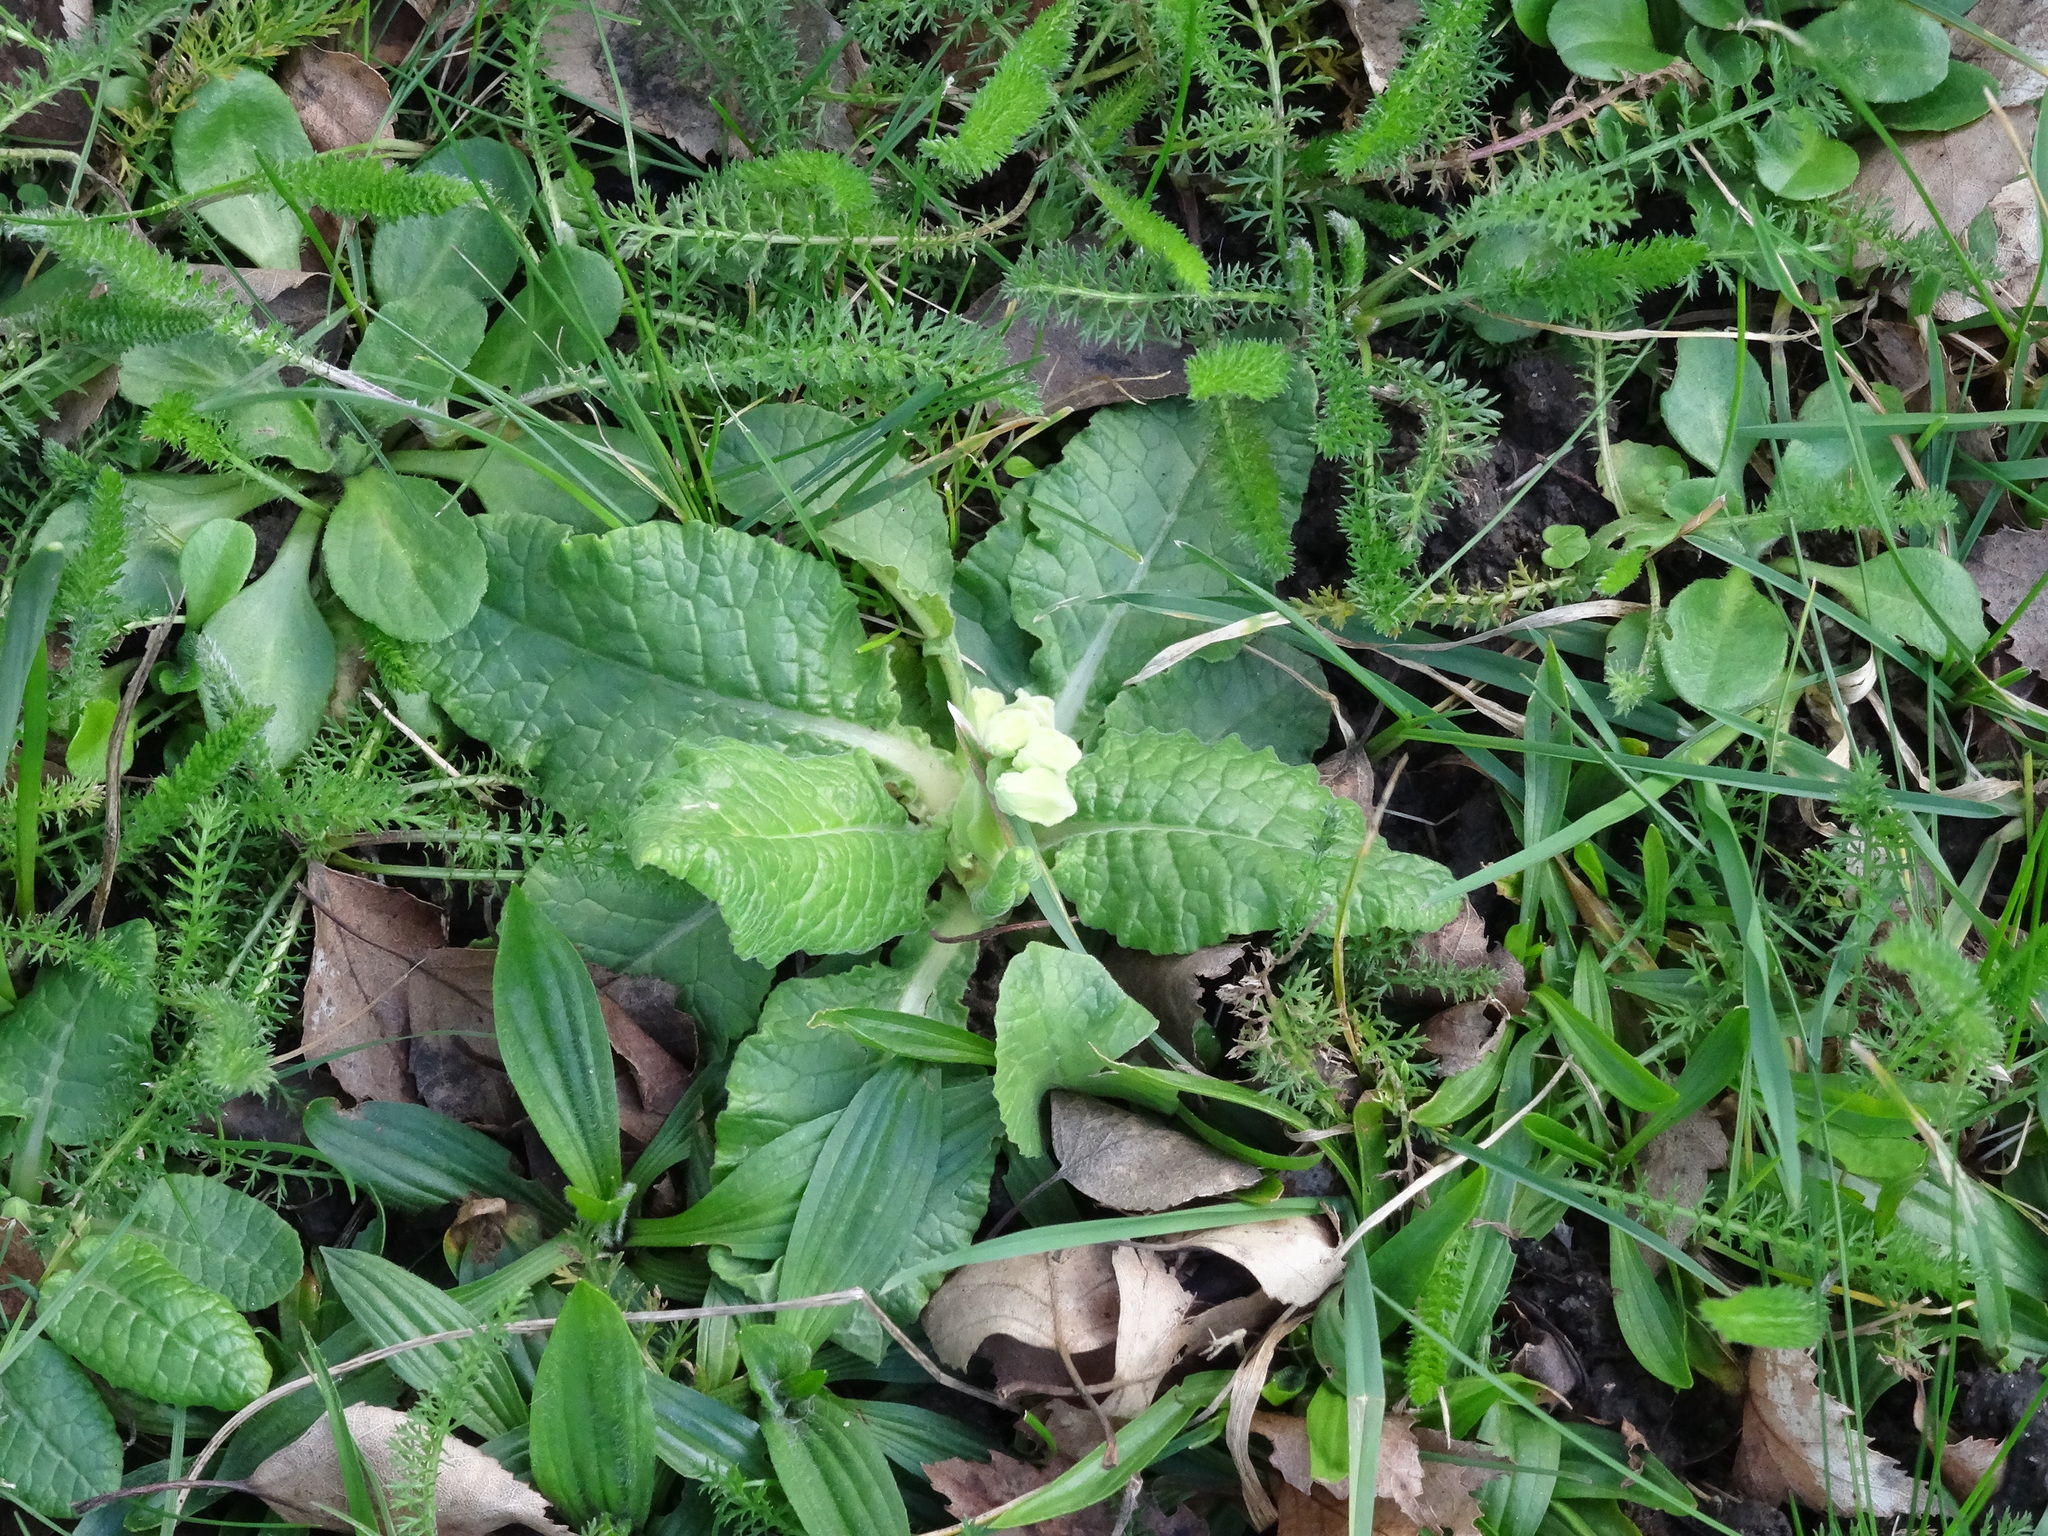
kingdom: Plantae
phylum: Tracheophyta
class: Magnoliopsida
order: Ericales
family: Primulaceae
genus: Primula
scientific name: Primula vulgaris
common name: Primrose
